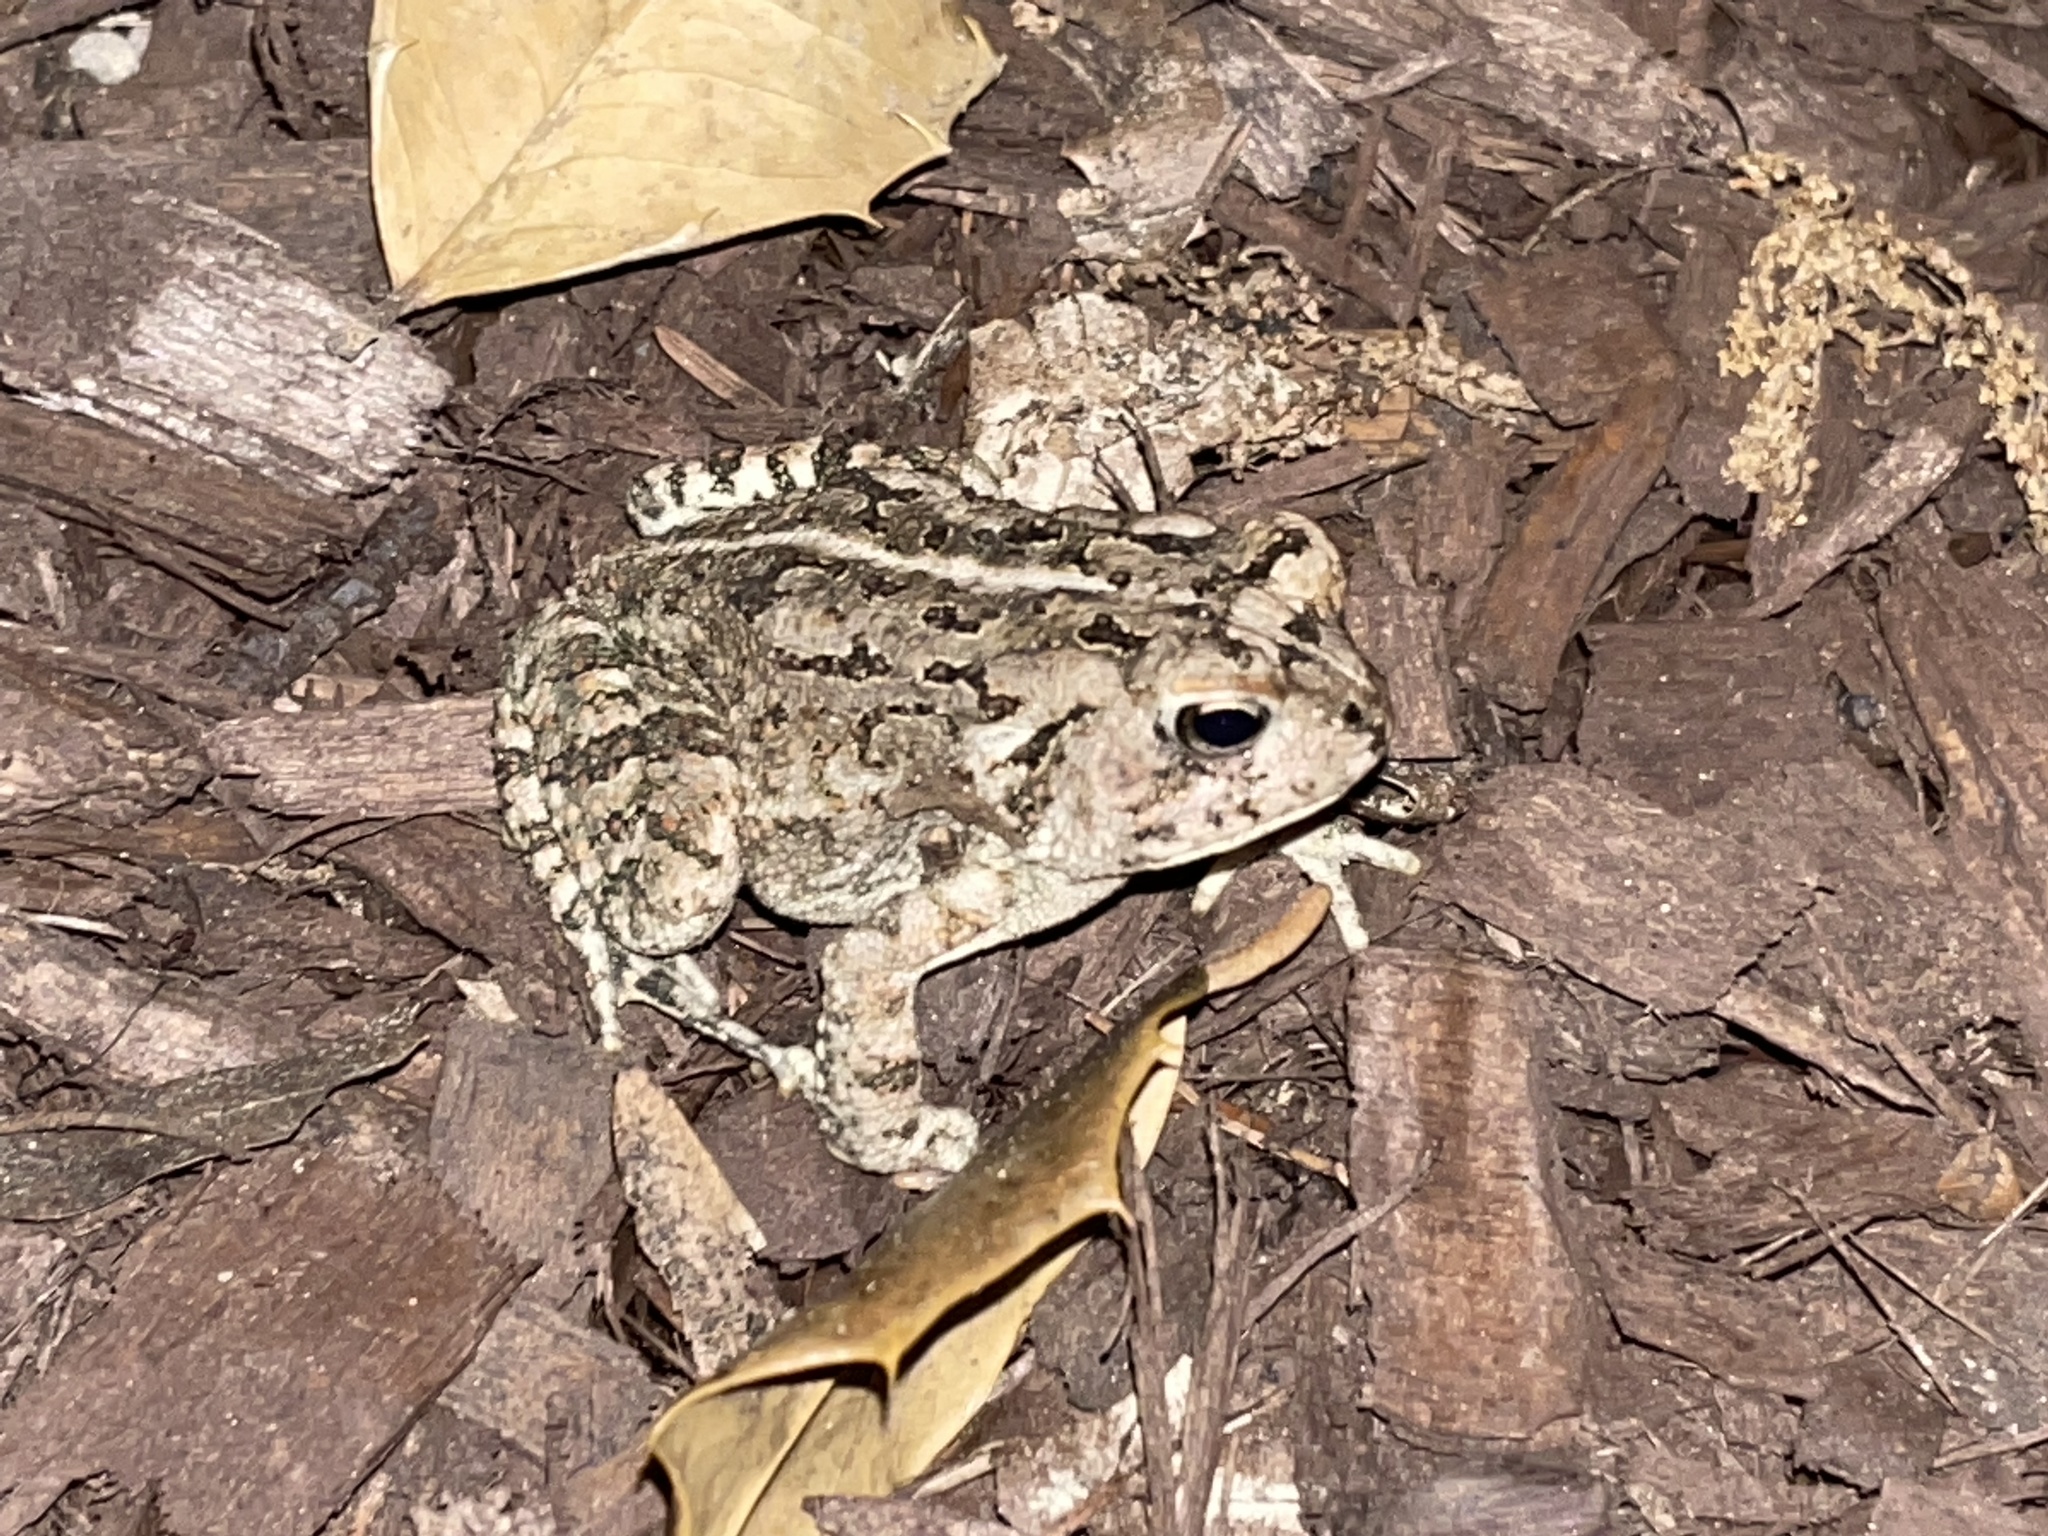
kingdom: Animalia
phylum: Chordata
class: Amphibia
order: Anura
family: Bufonidae
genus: Anaxyrus
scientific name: Anaxyrus fowleri
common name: Fowler's toad
